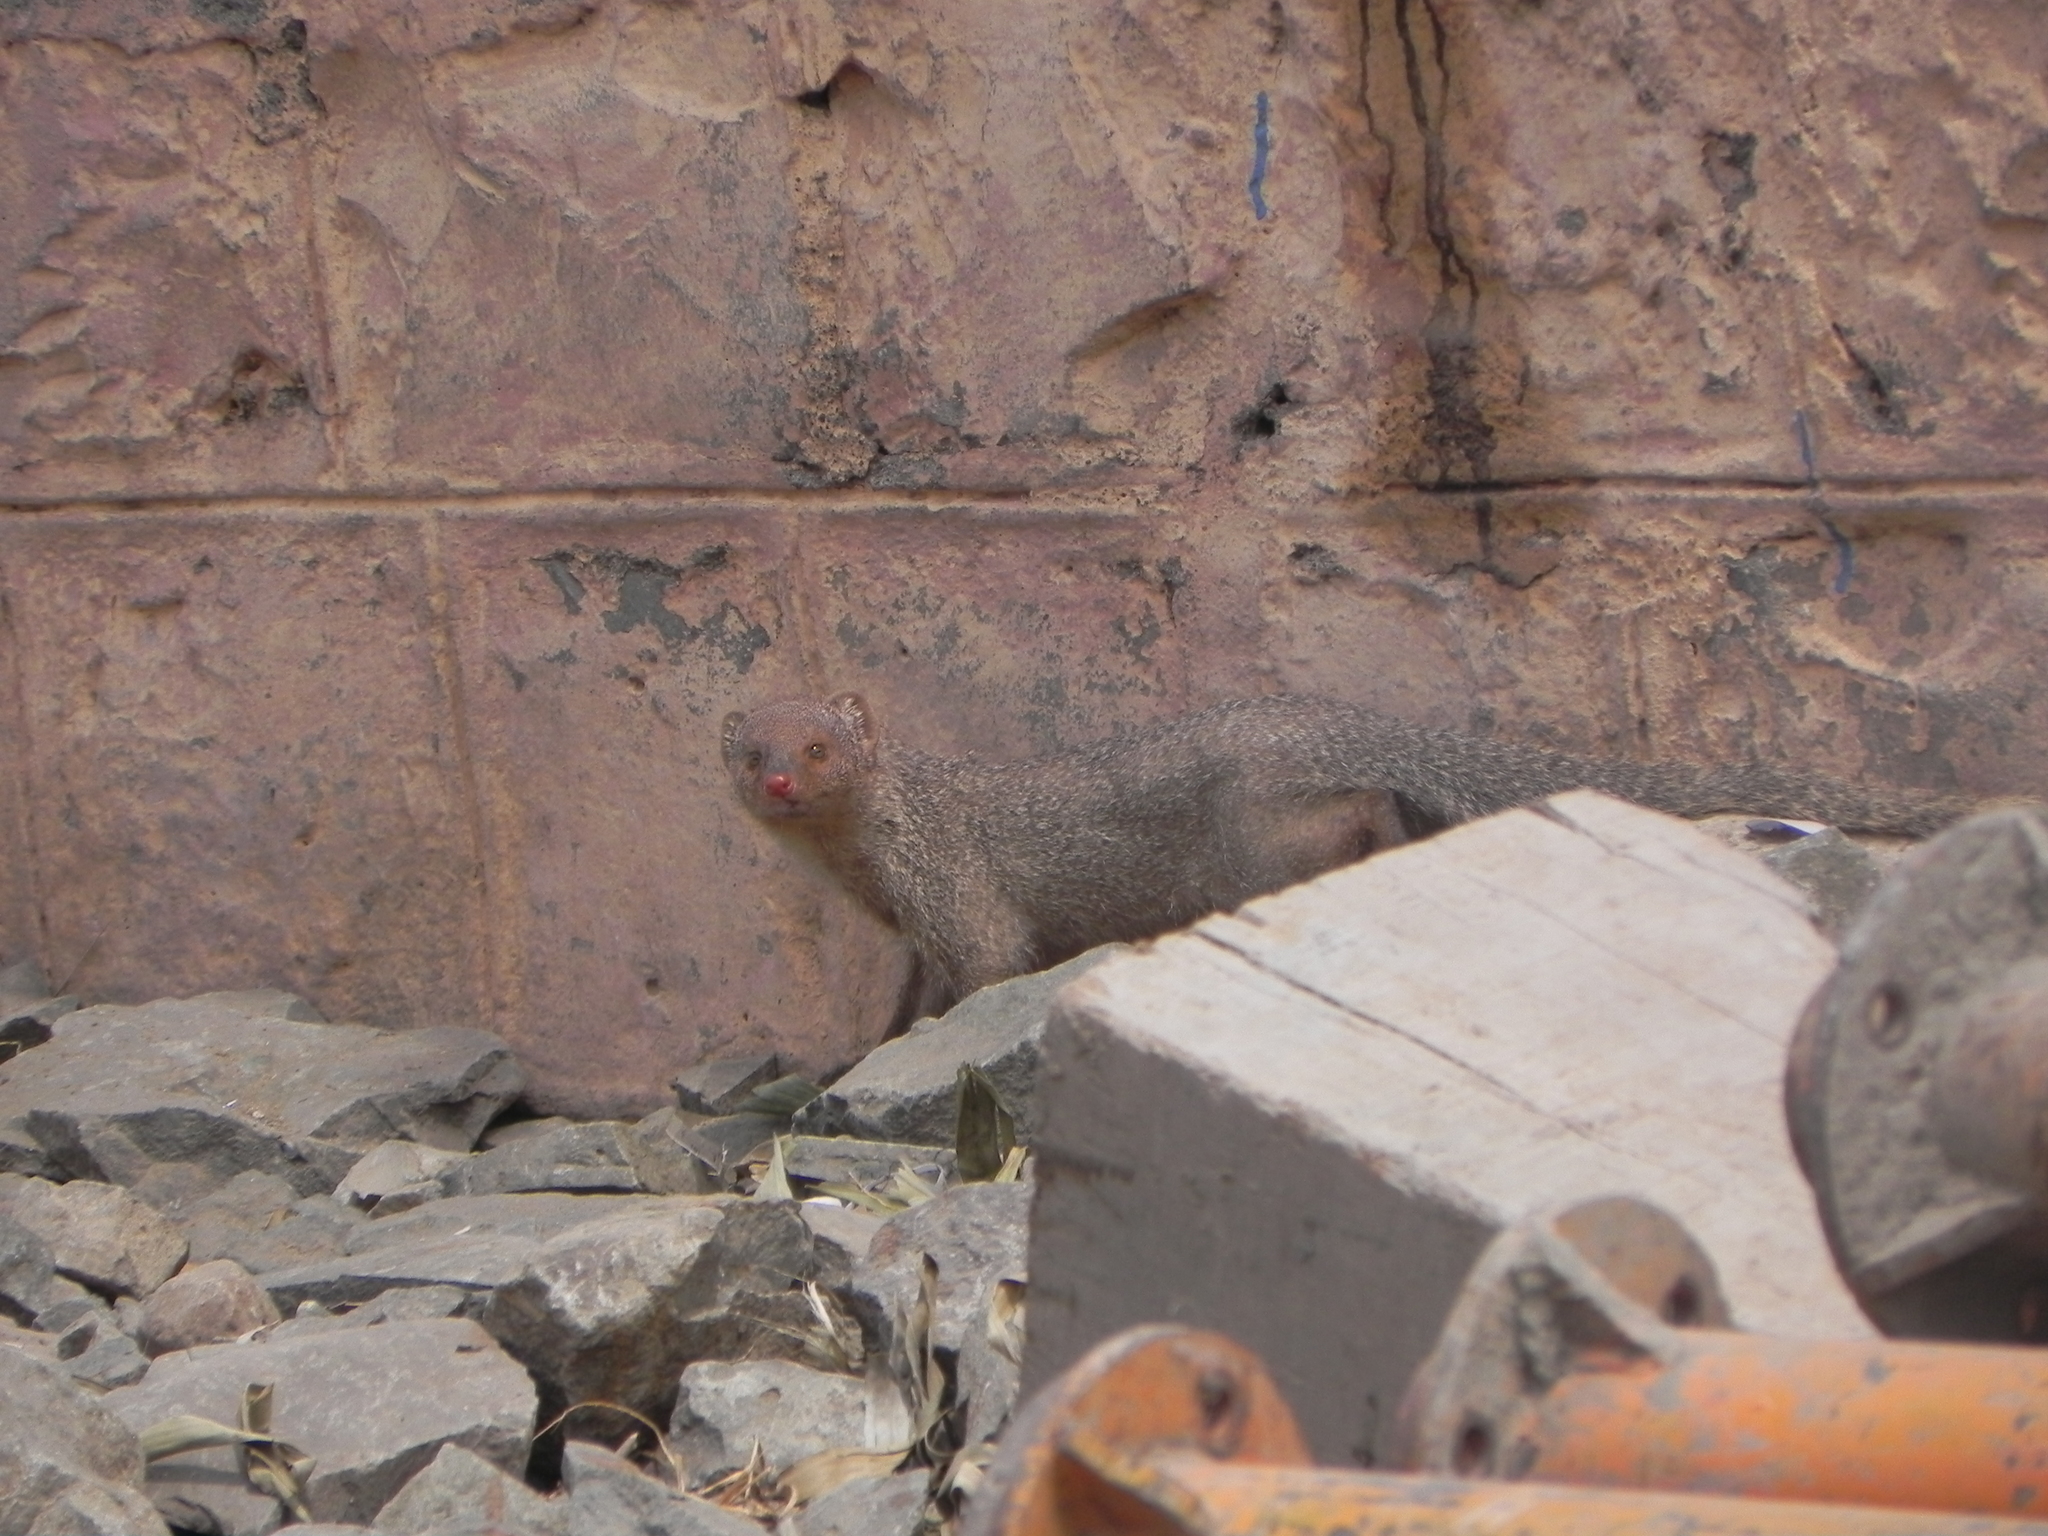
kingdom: Animalia
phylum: Chordata
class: Mammalia
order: Carnivora
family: Herpestidae
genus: Herpestes
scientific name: Herpestes edwardsi
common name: Indian gray mongoose
